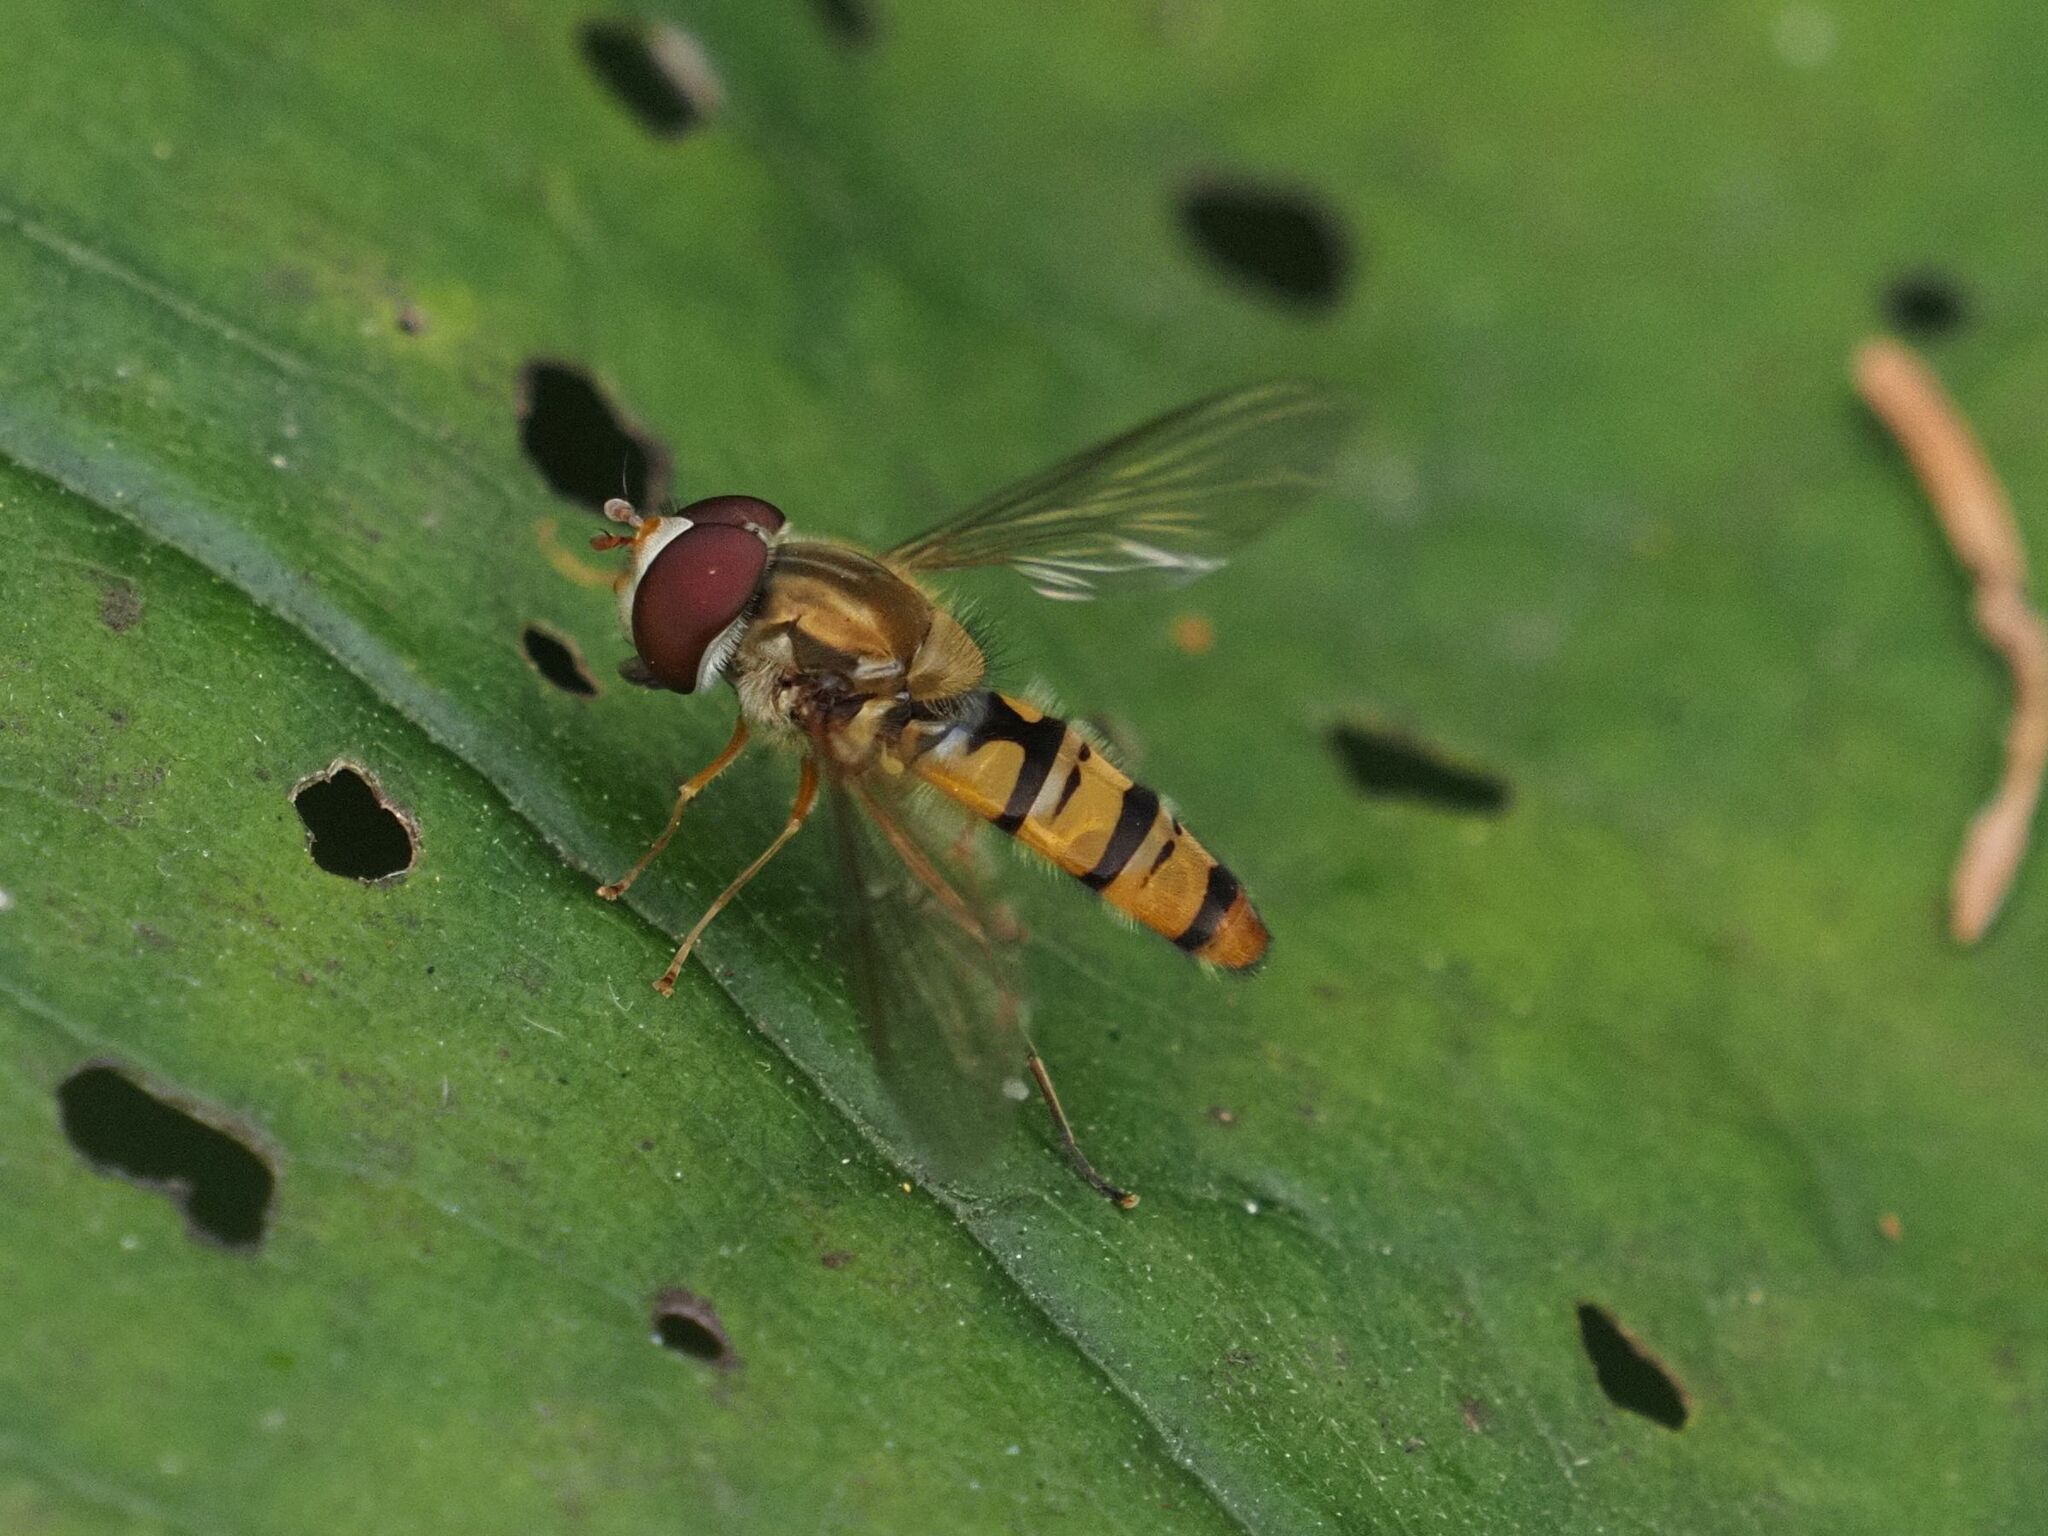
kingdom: Animalia
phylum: Arthropoda
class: Insecta
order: Diptera
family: Syrphidae
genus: Episyrphus
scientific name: Episyrphus balteatus
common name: Marmalade hoverfly
